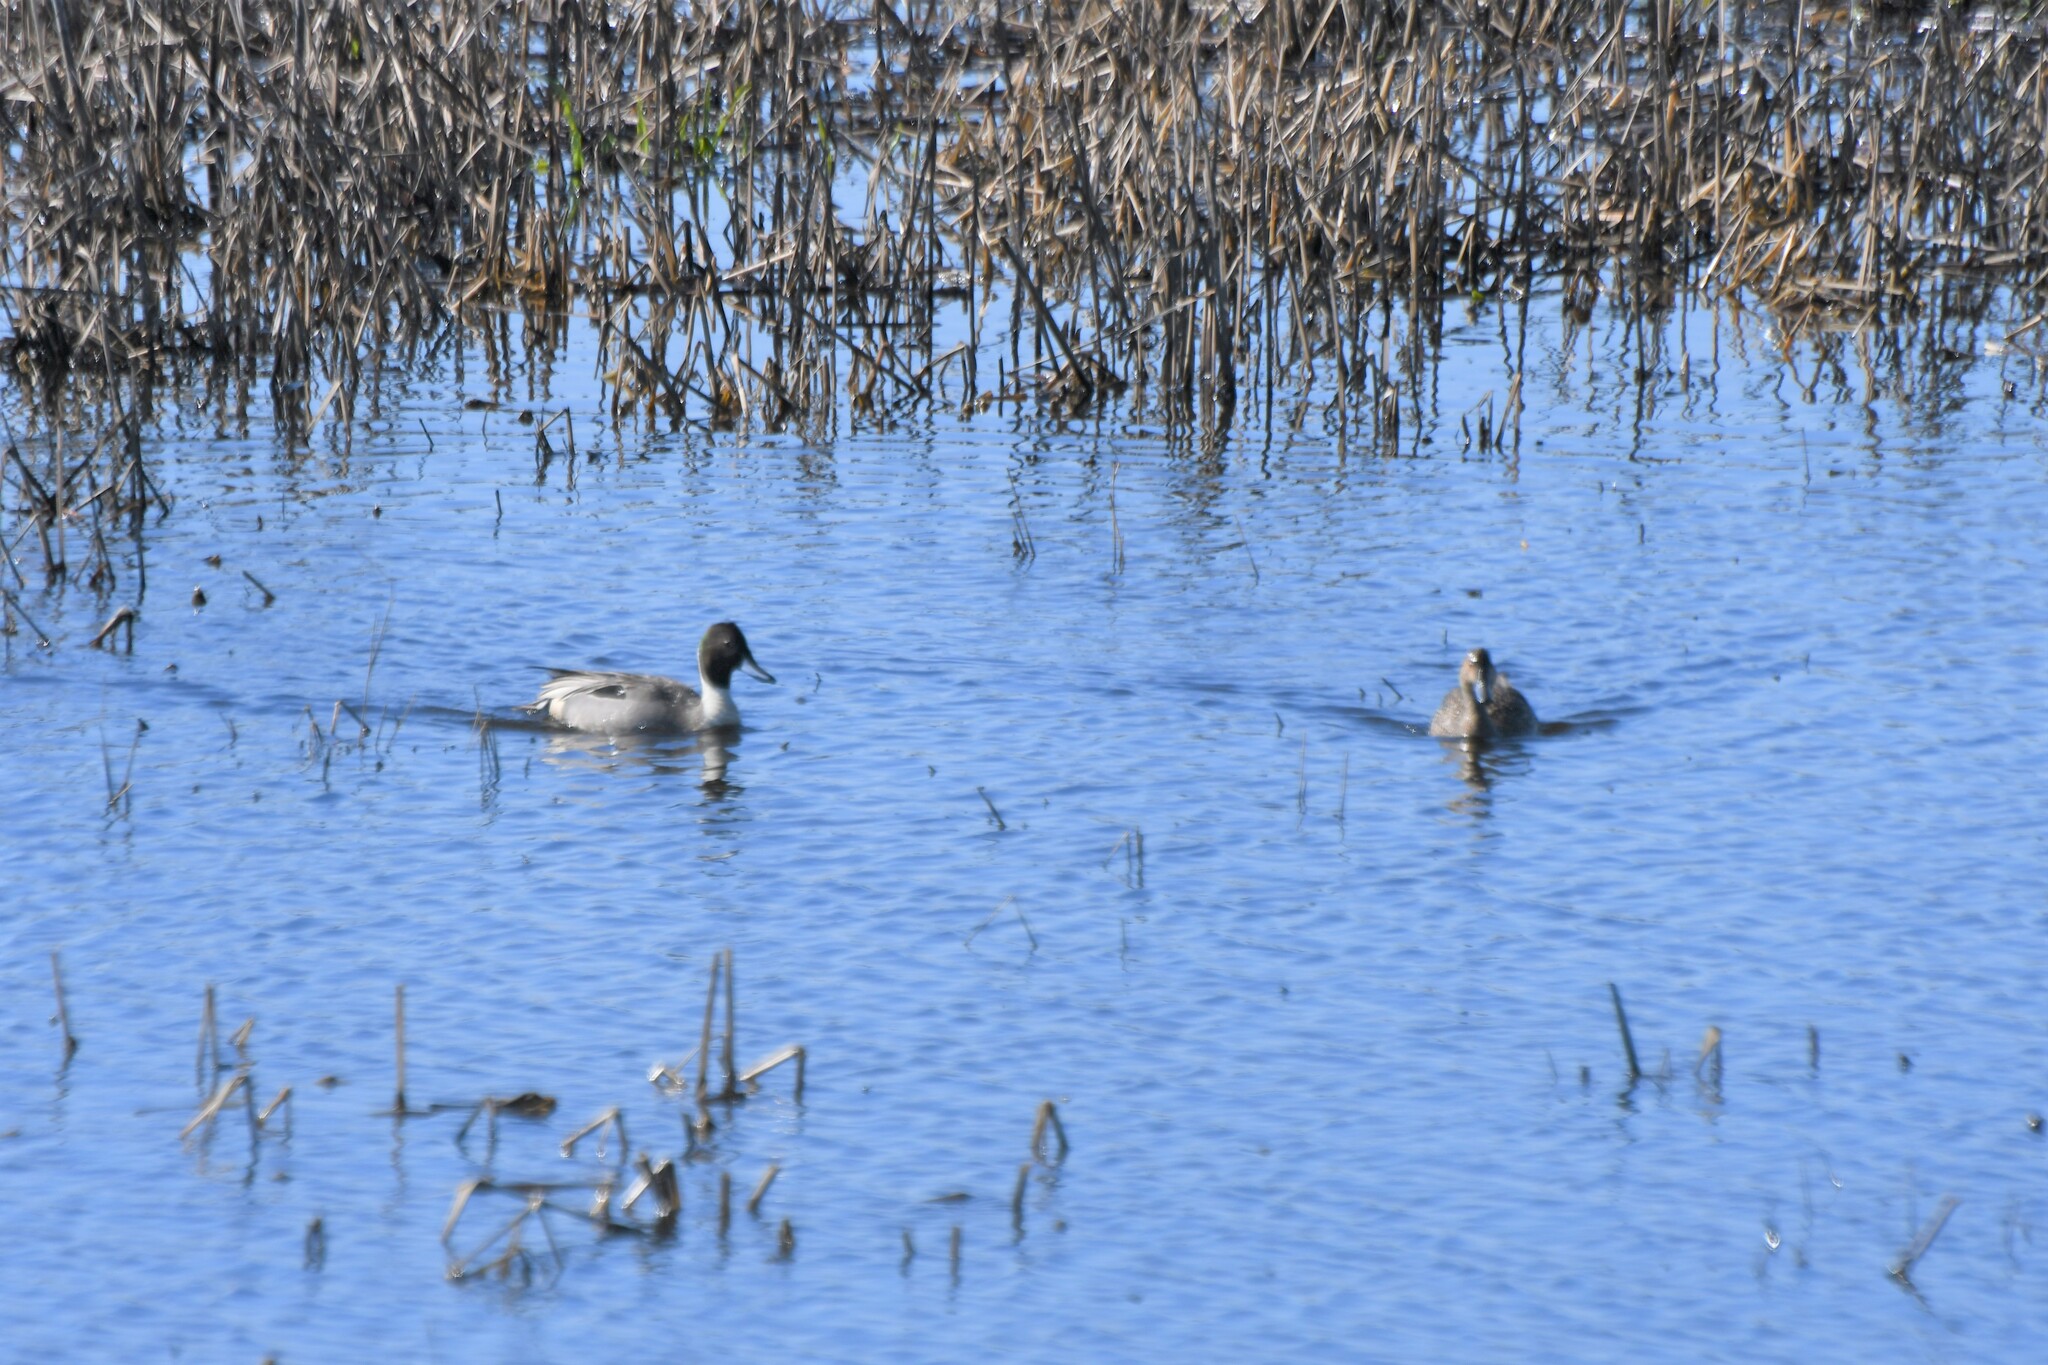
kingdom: Animalia
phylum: Chordata
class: Aves
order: Anseriformes
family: Anatidae
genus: Anas
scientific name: Anas acuta
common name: Northern pintail
